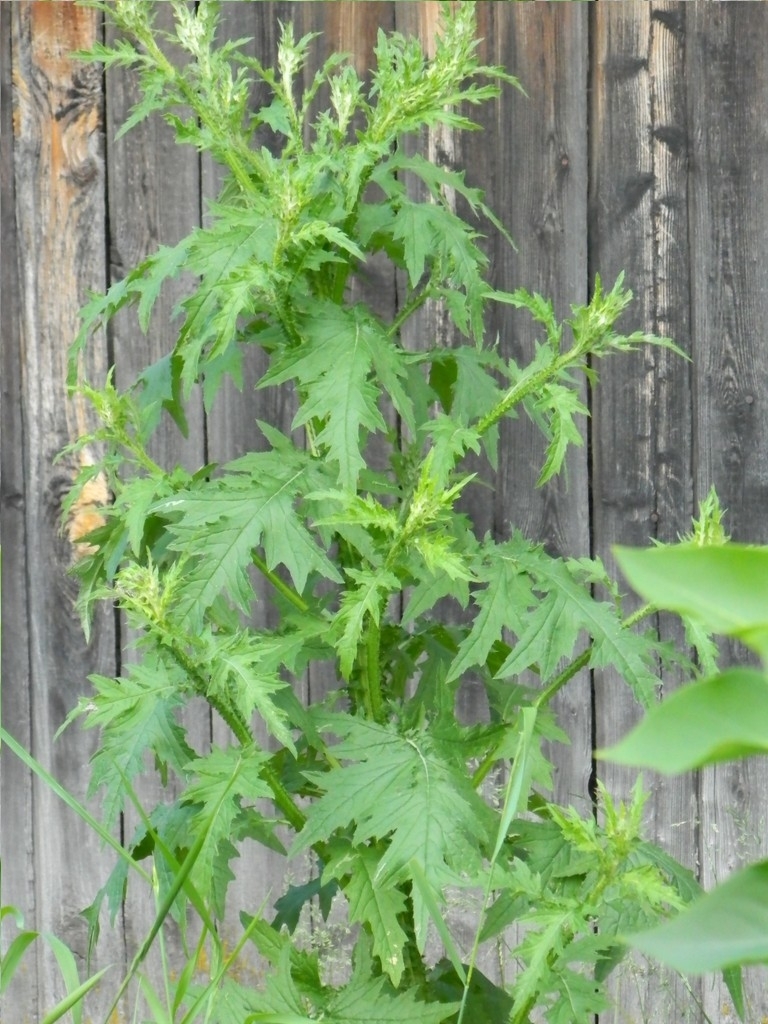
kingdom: Plantae
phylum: Tracheophyta
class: Magnoliopsida
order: Asterales
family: Asteraceae
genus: Carduus
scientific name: Carduus crispus
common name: Welted thistle
